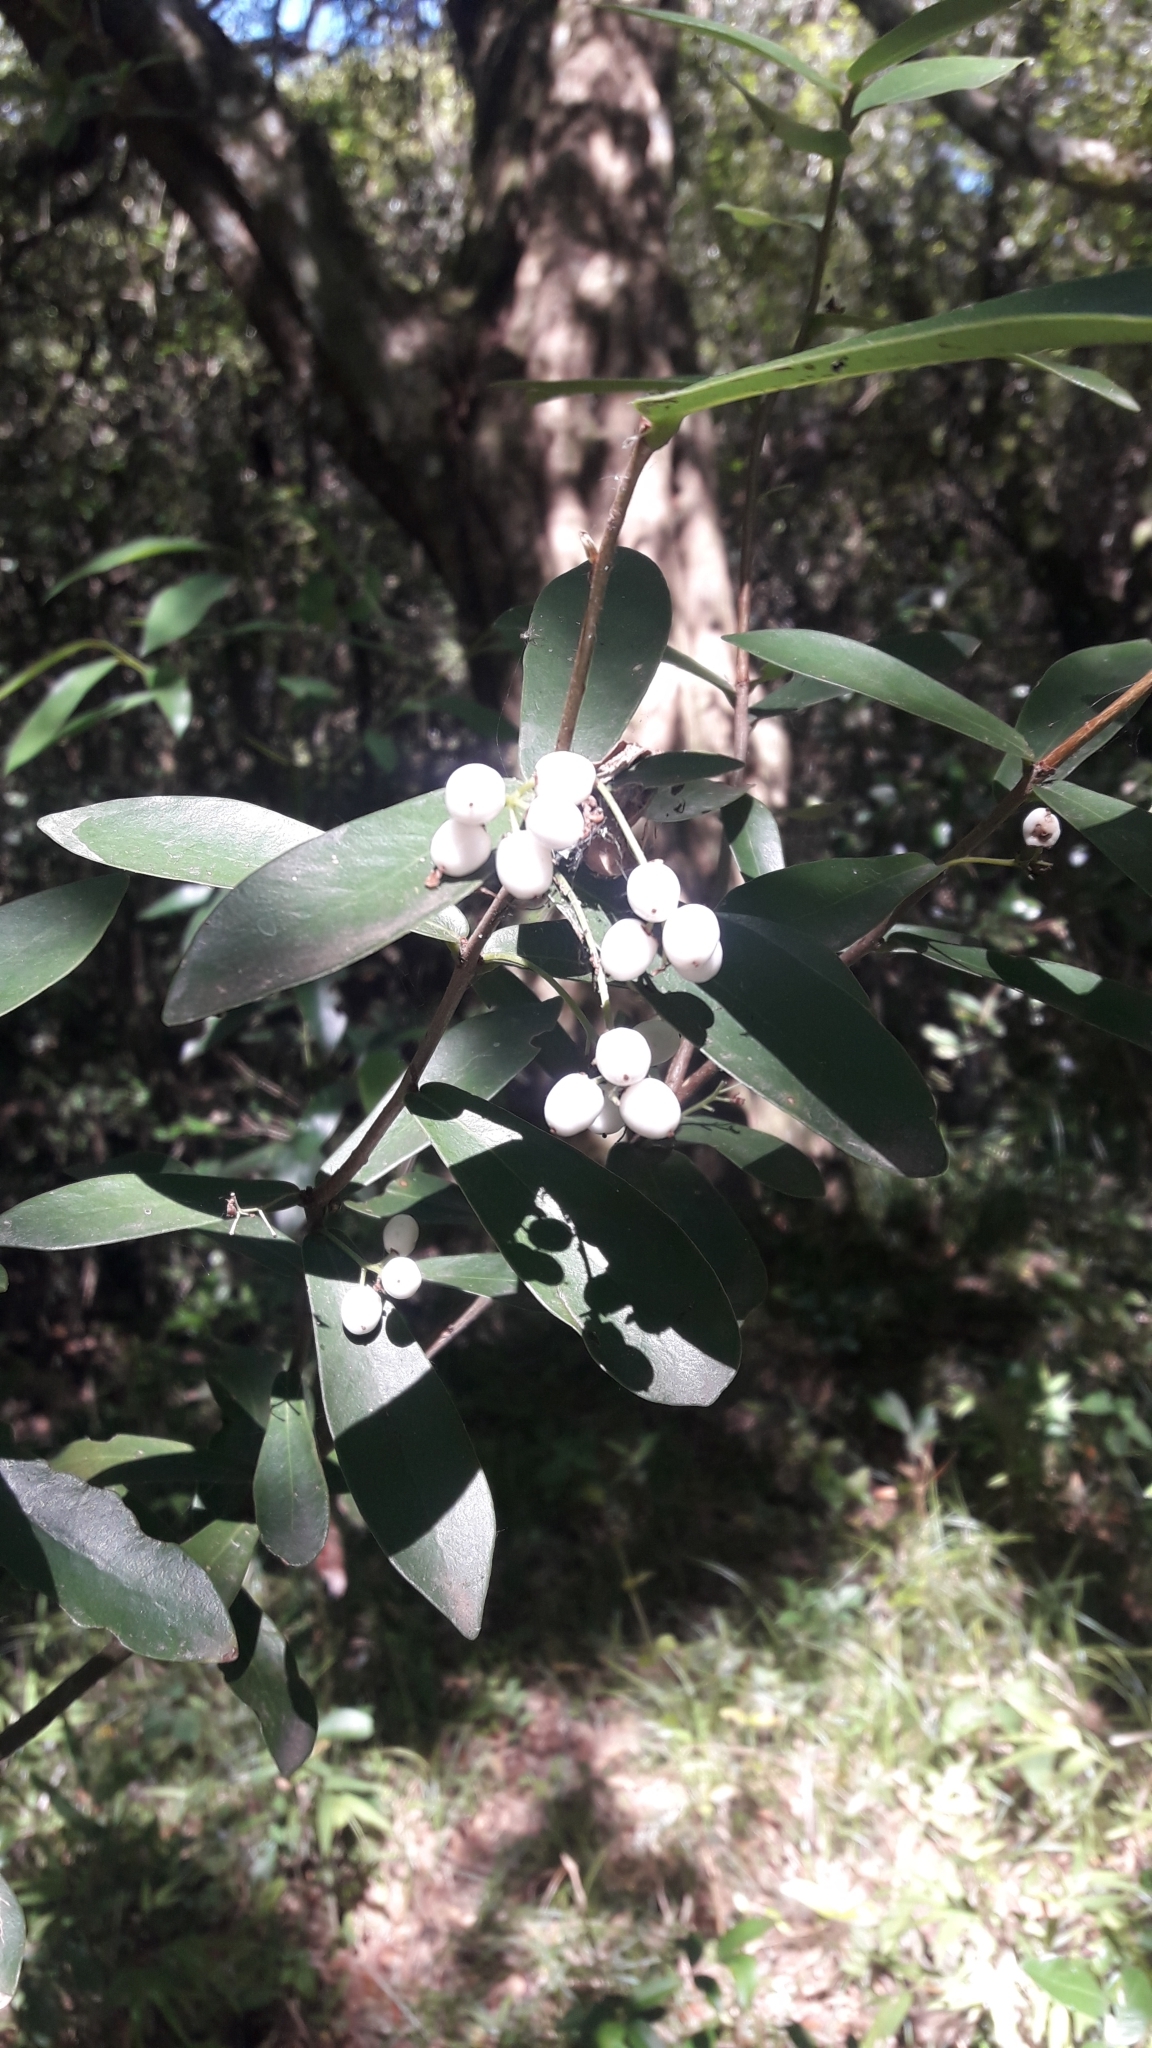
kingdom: Plantae
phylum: Tracheophyta
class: Magnoliopsida
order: Malvales
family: Thymelaeaceae
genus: Daphnopsis
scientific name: Daphnopsis racemosa
